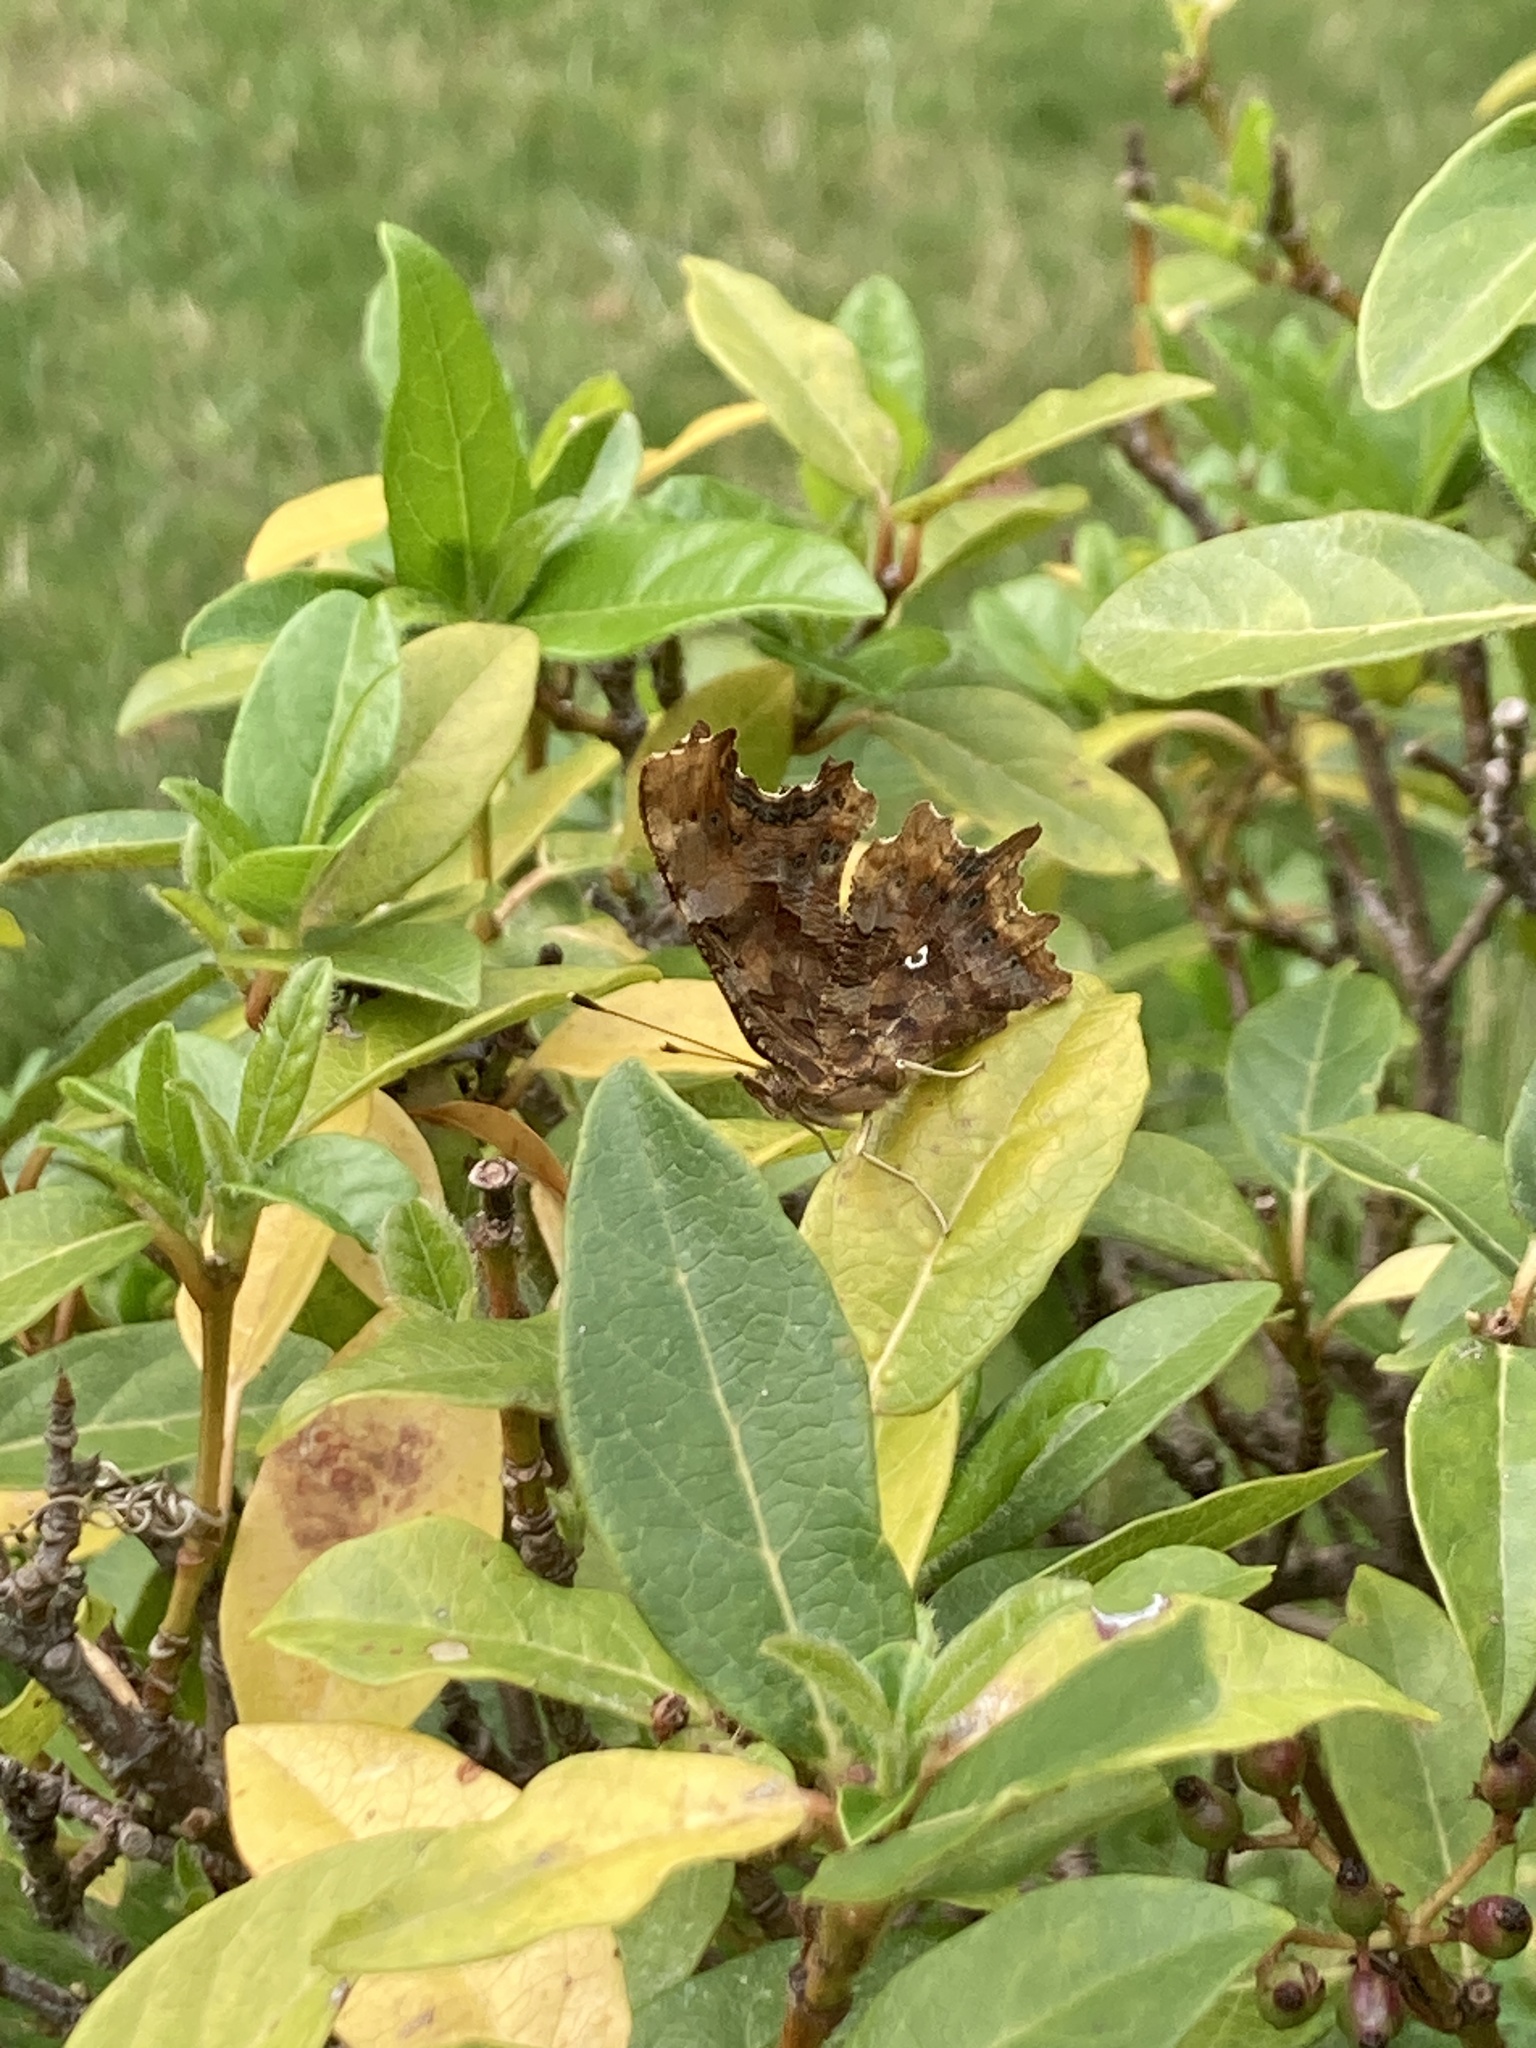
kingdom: Animalia
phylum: Arthropoda
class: Insecta
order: Lepidoptera
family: Nymphalidae
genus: Polygonia
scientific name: Polygonia c-album
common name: Comma
